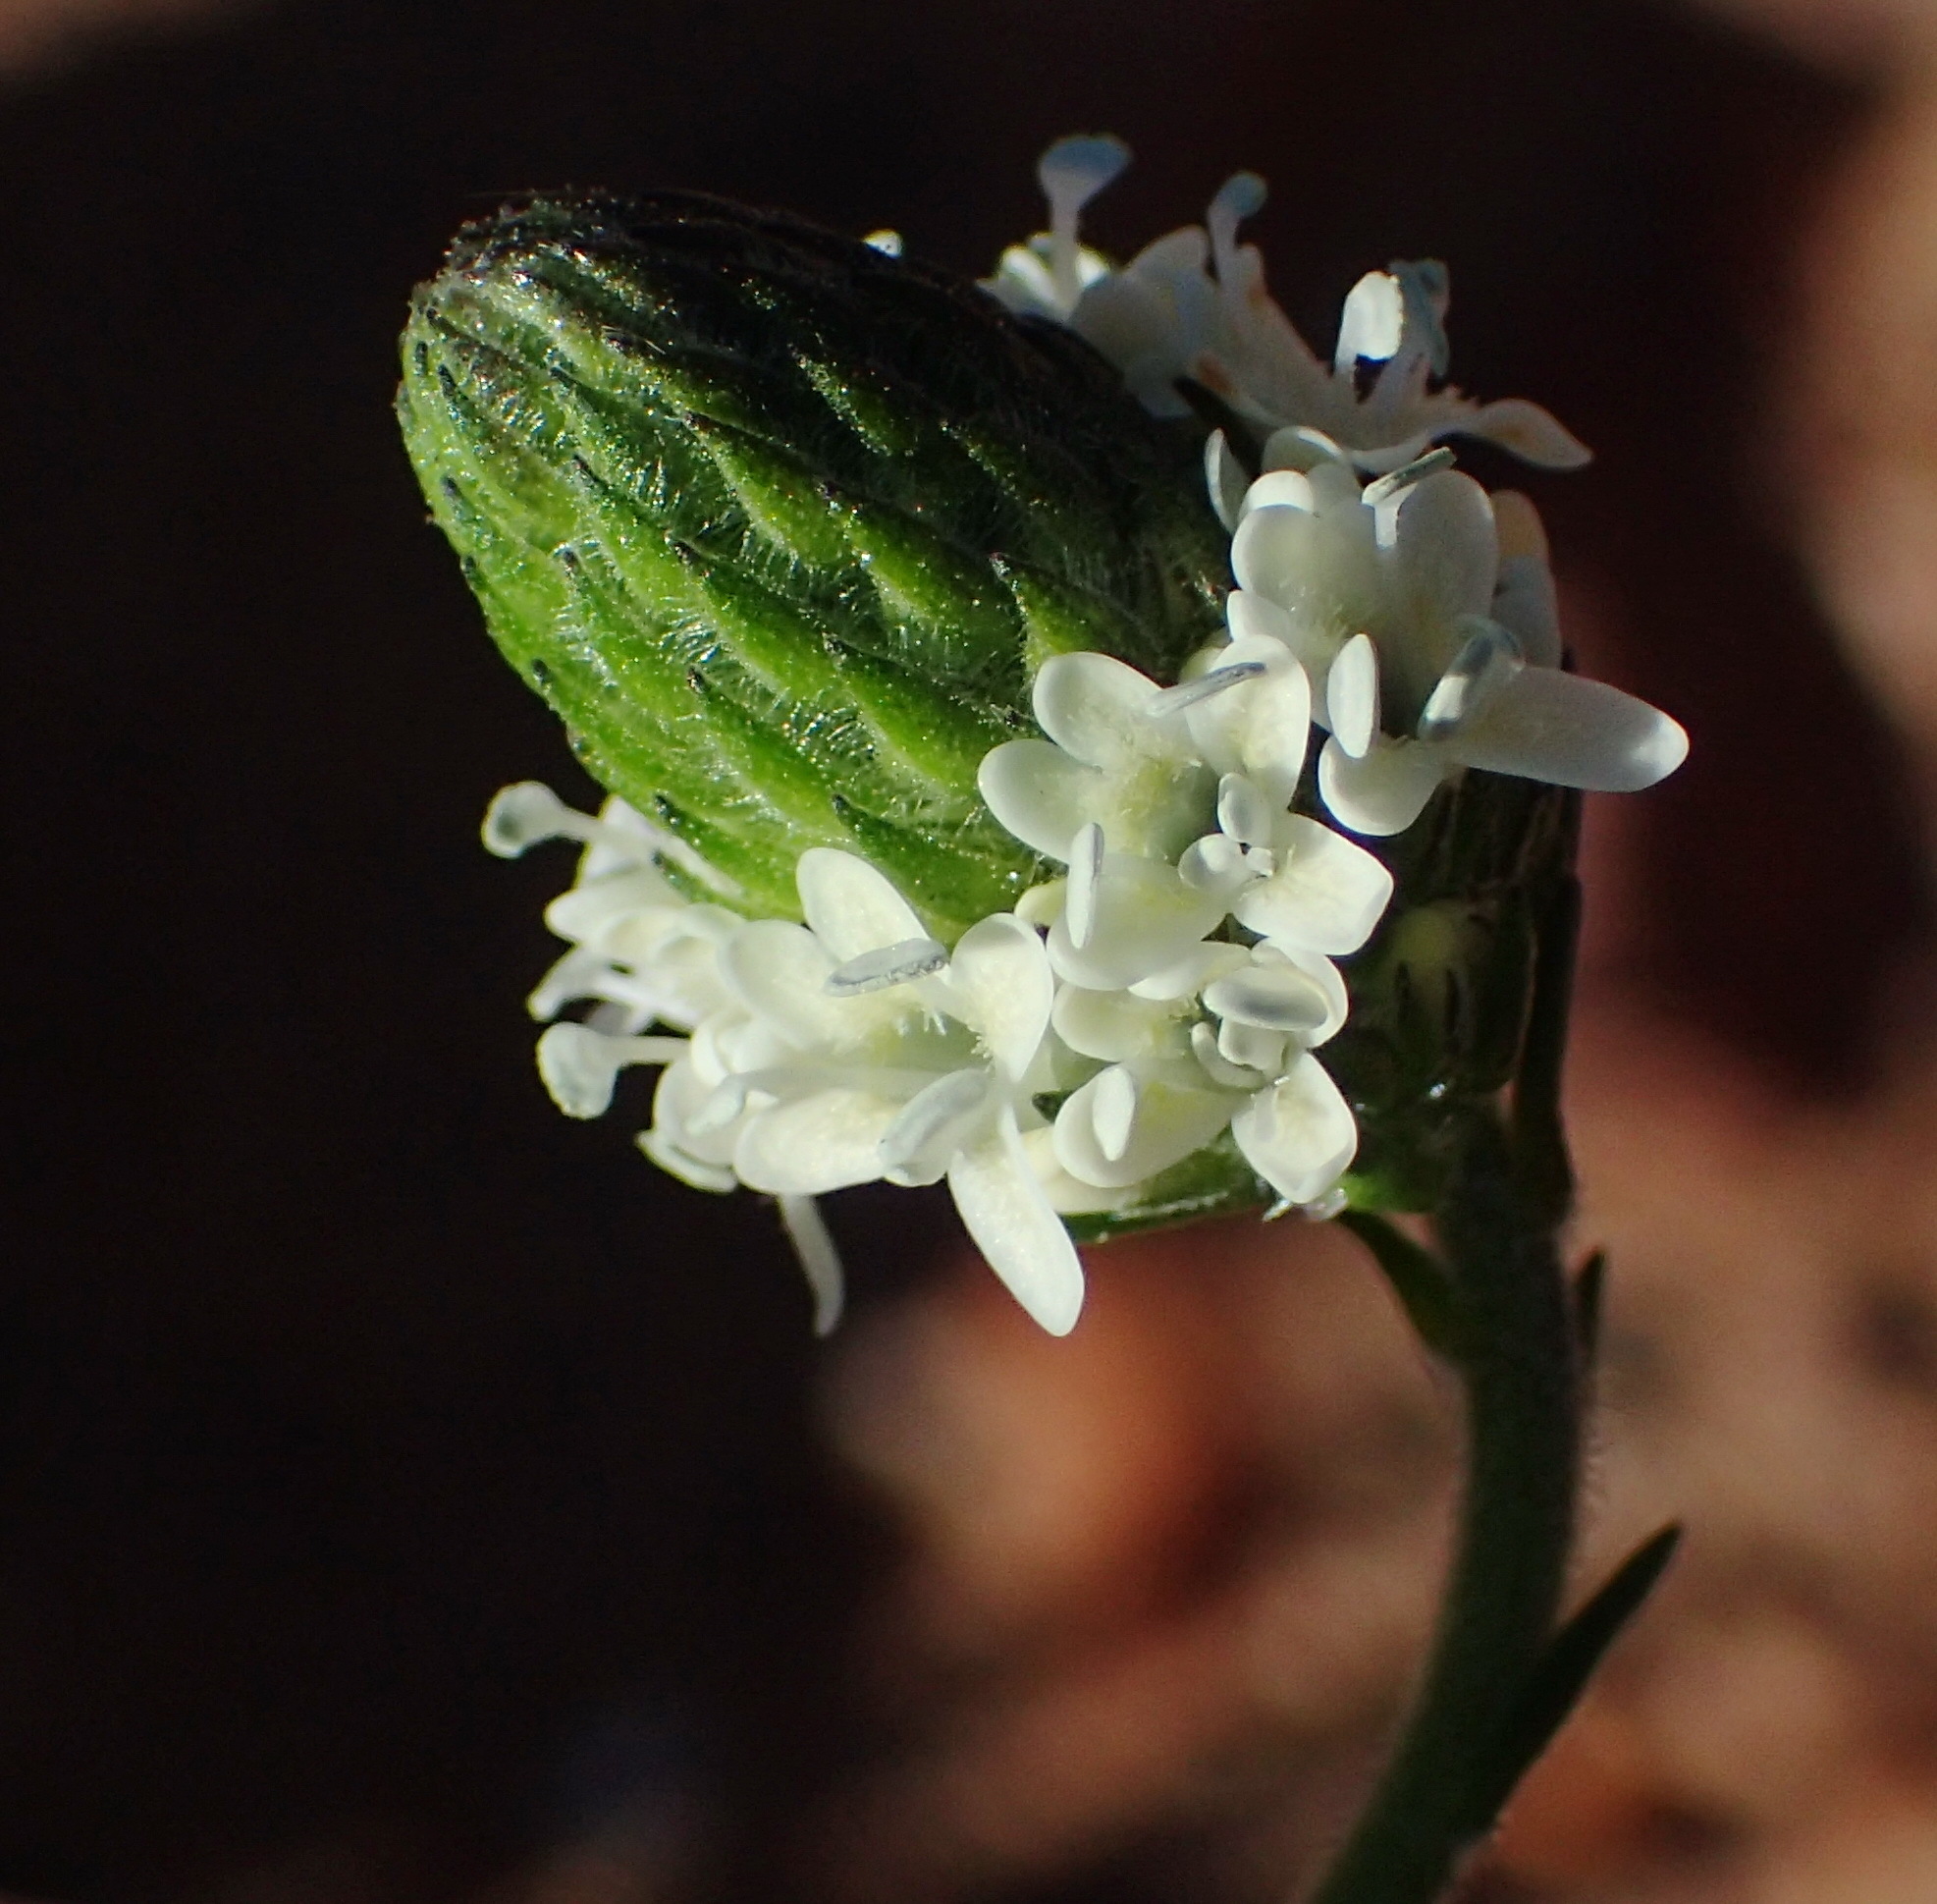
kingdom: Plantae
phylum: Tracheophyta
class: Magnoliopsida
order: Lamiales
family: Scrophulariaceae
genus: Phyllopodium
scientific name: Phyllopodium elegans
